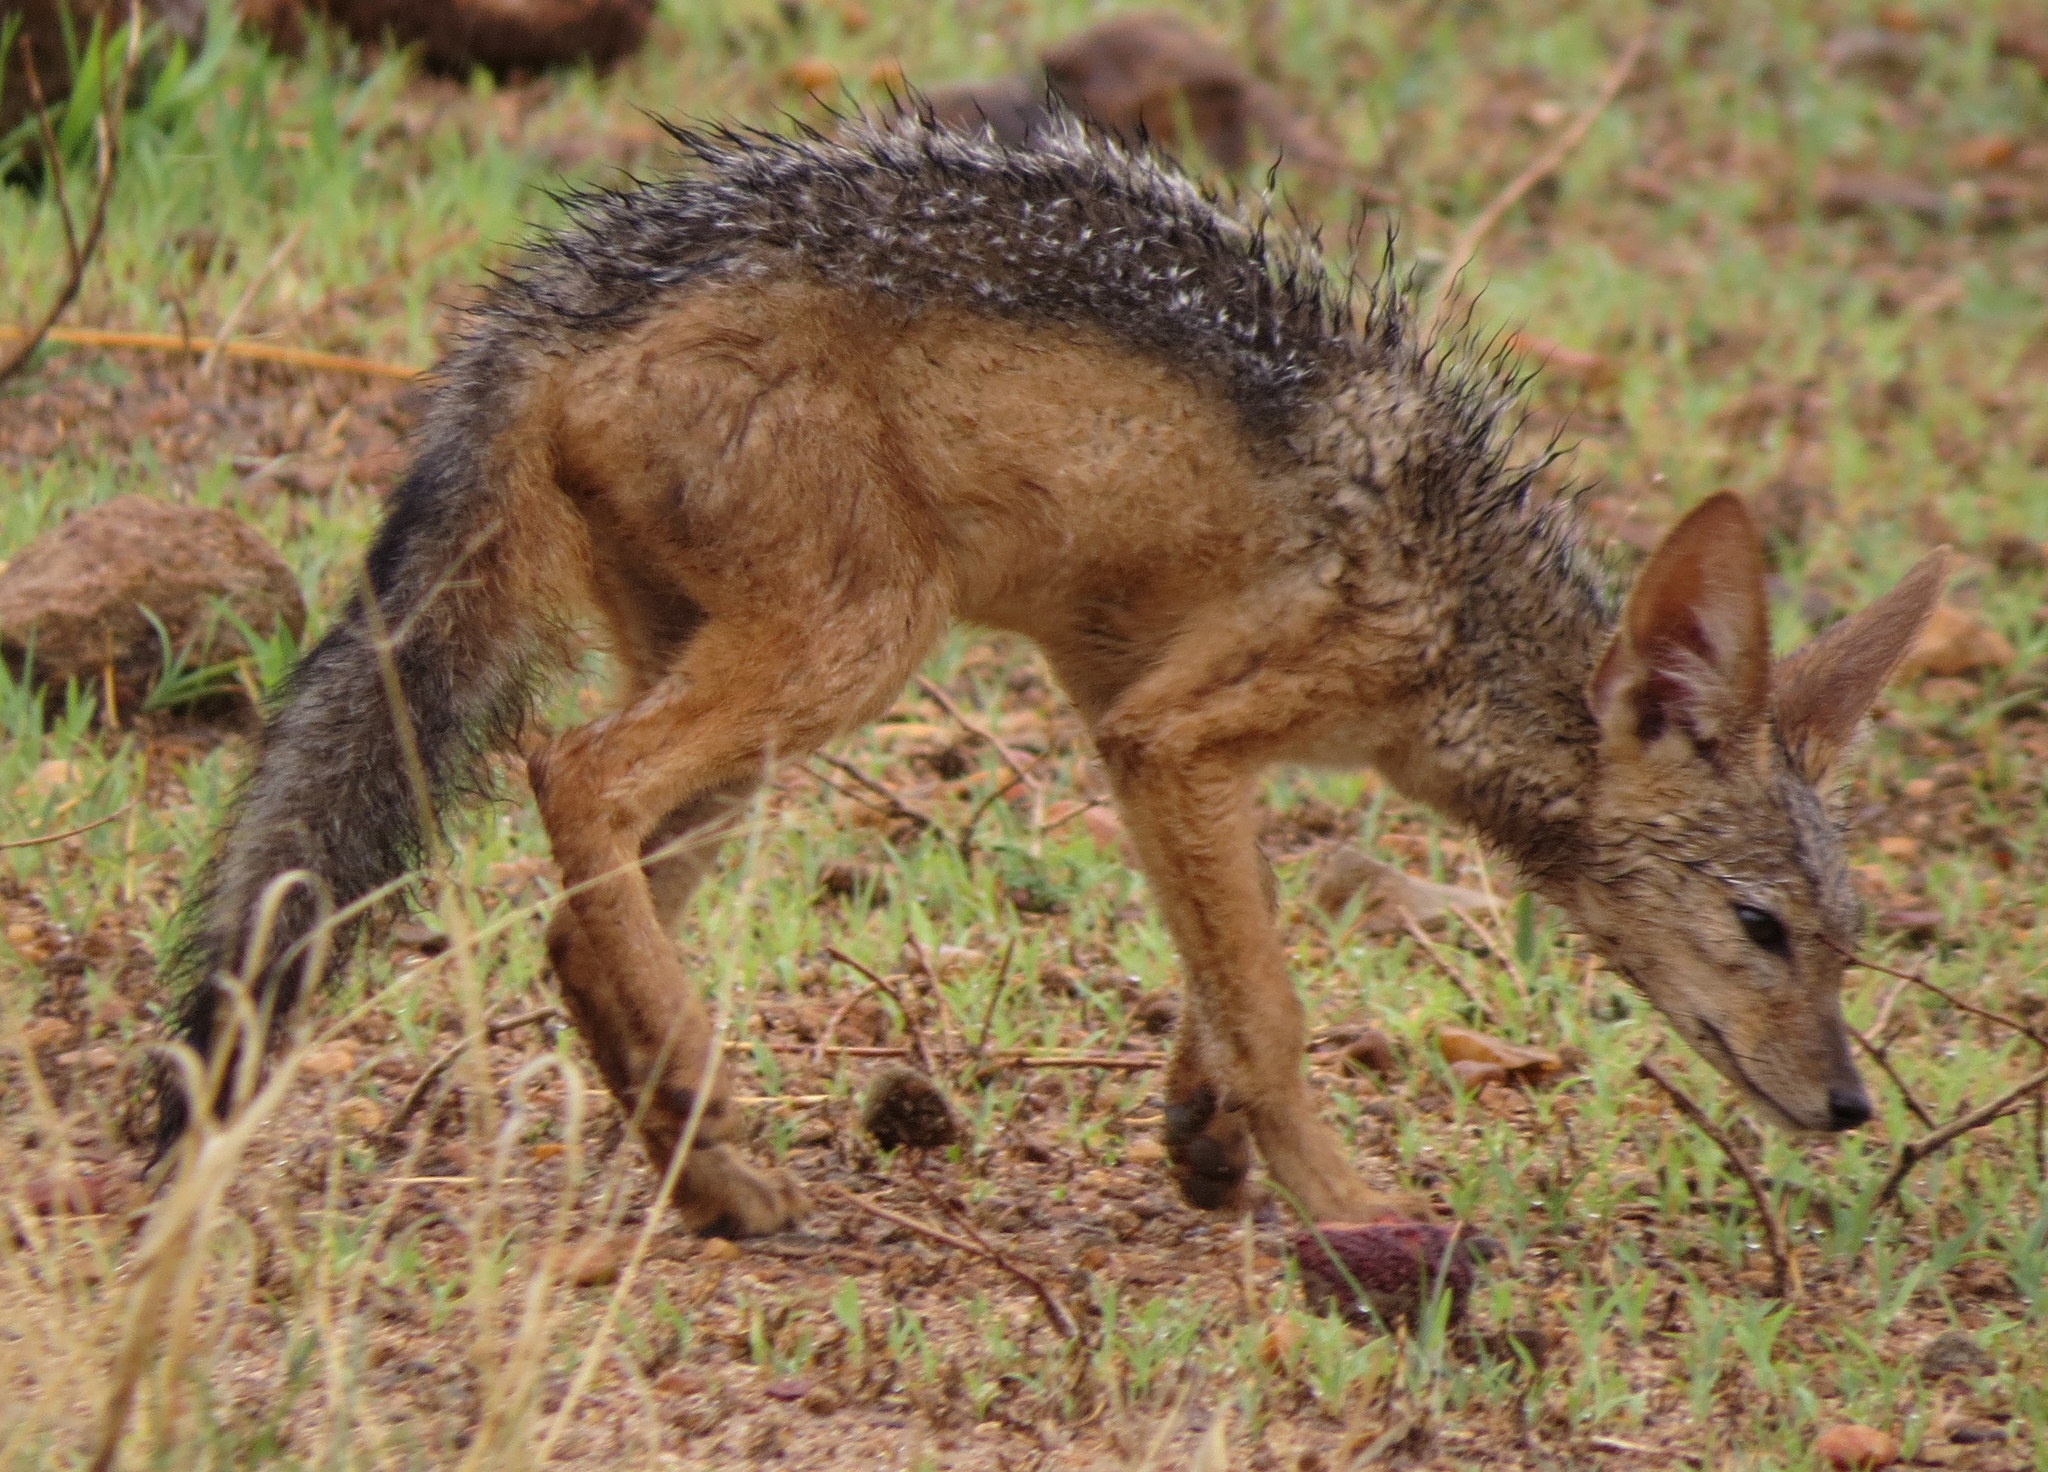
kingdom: Animalia
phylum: Chordata
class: Mammalia
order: Carnivora
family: Canidae
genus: Lupulella
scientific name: Lupulella
